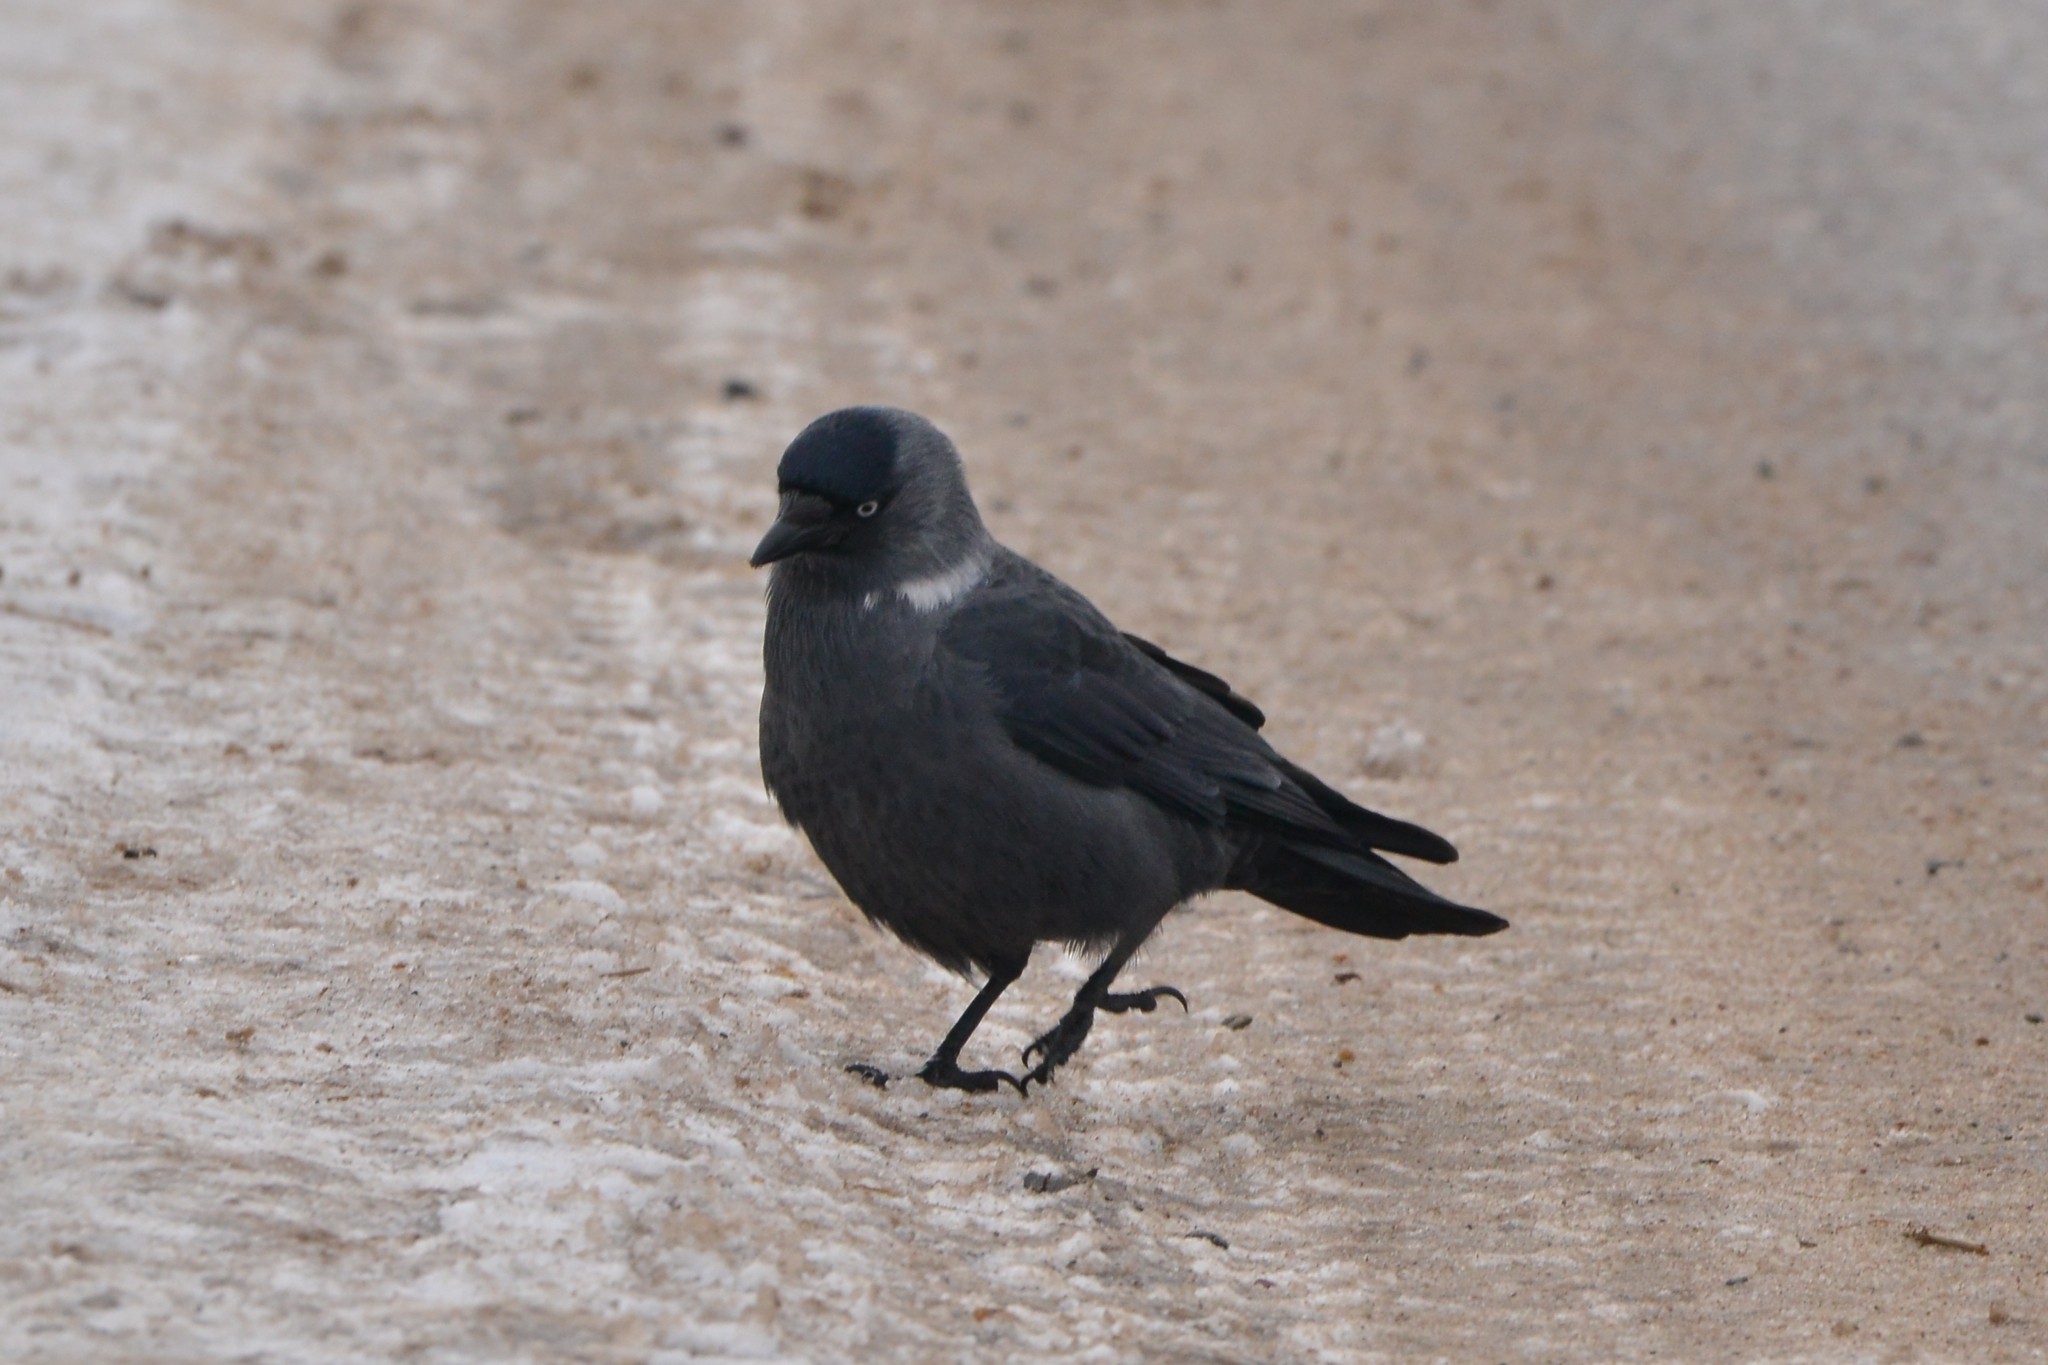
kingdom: Animalia
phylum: Chordata
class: Aves
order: Passeriformes
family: Corvidae
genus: Coloeus
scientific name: Coloeus monedula
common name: Western jackdaw
